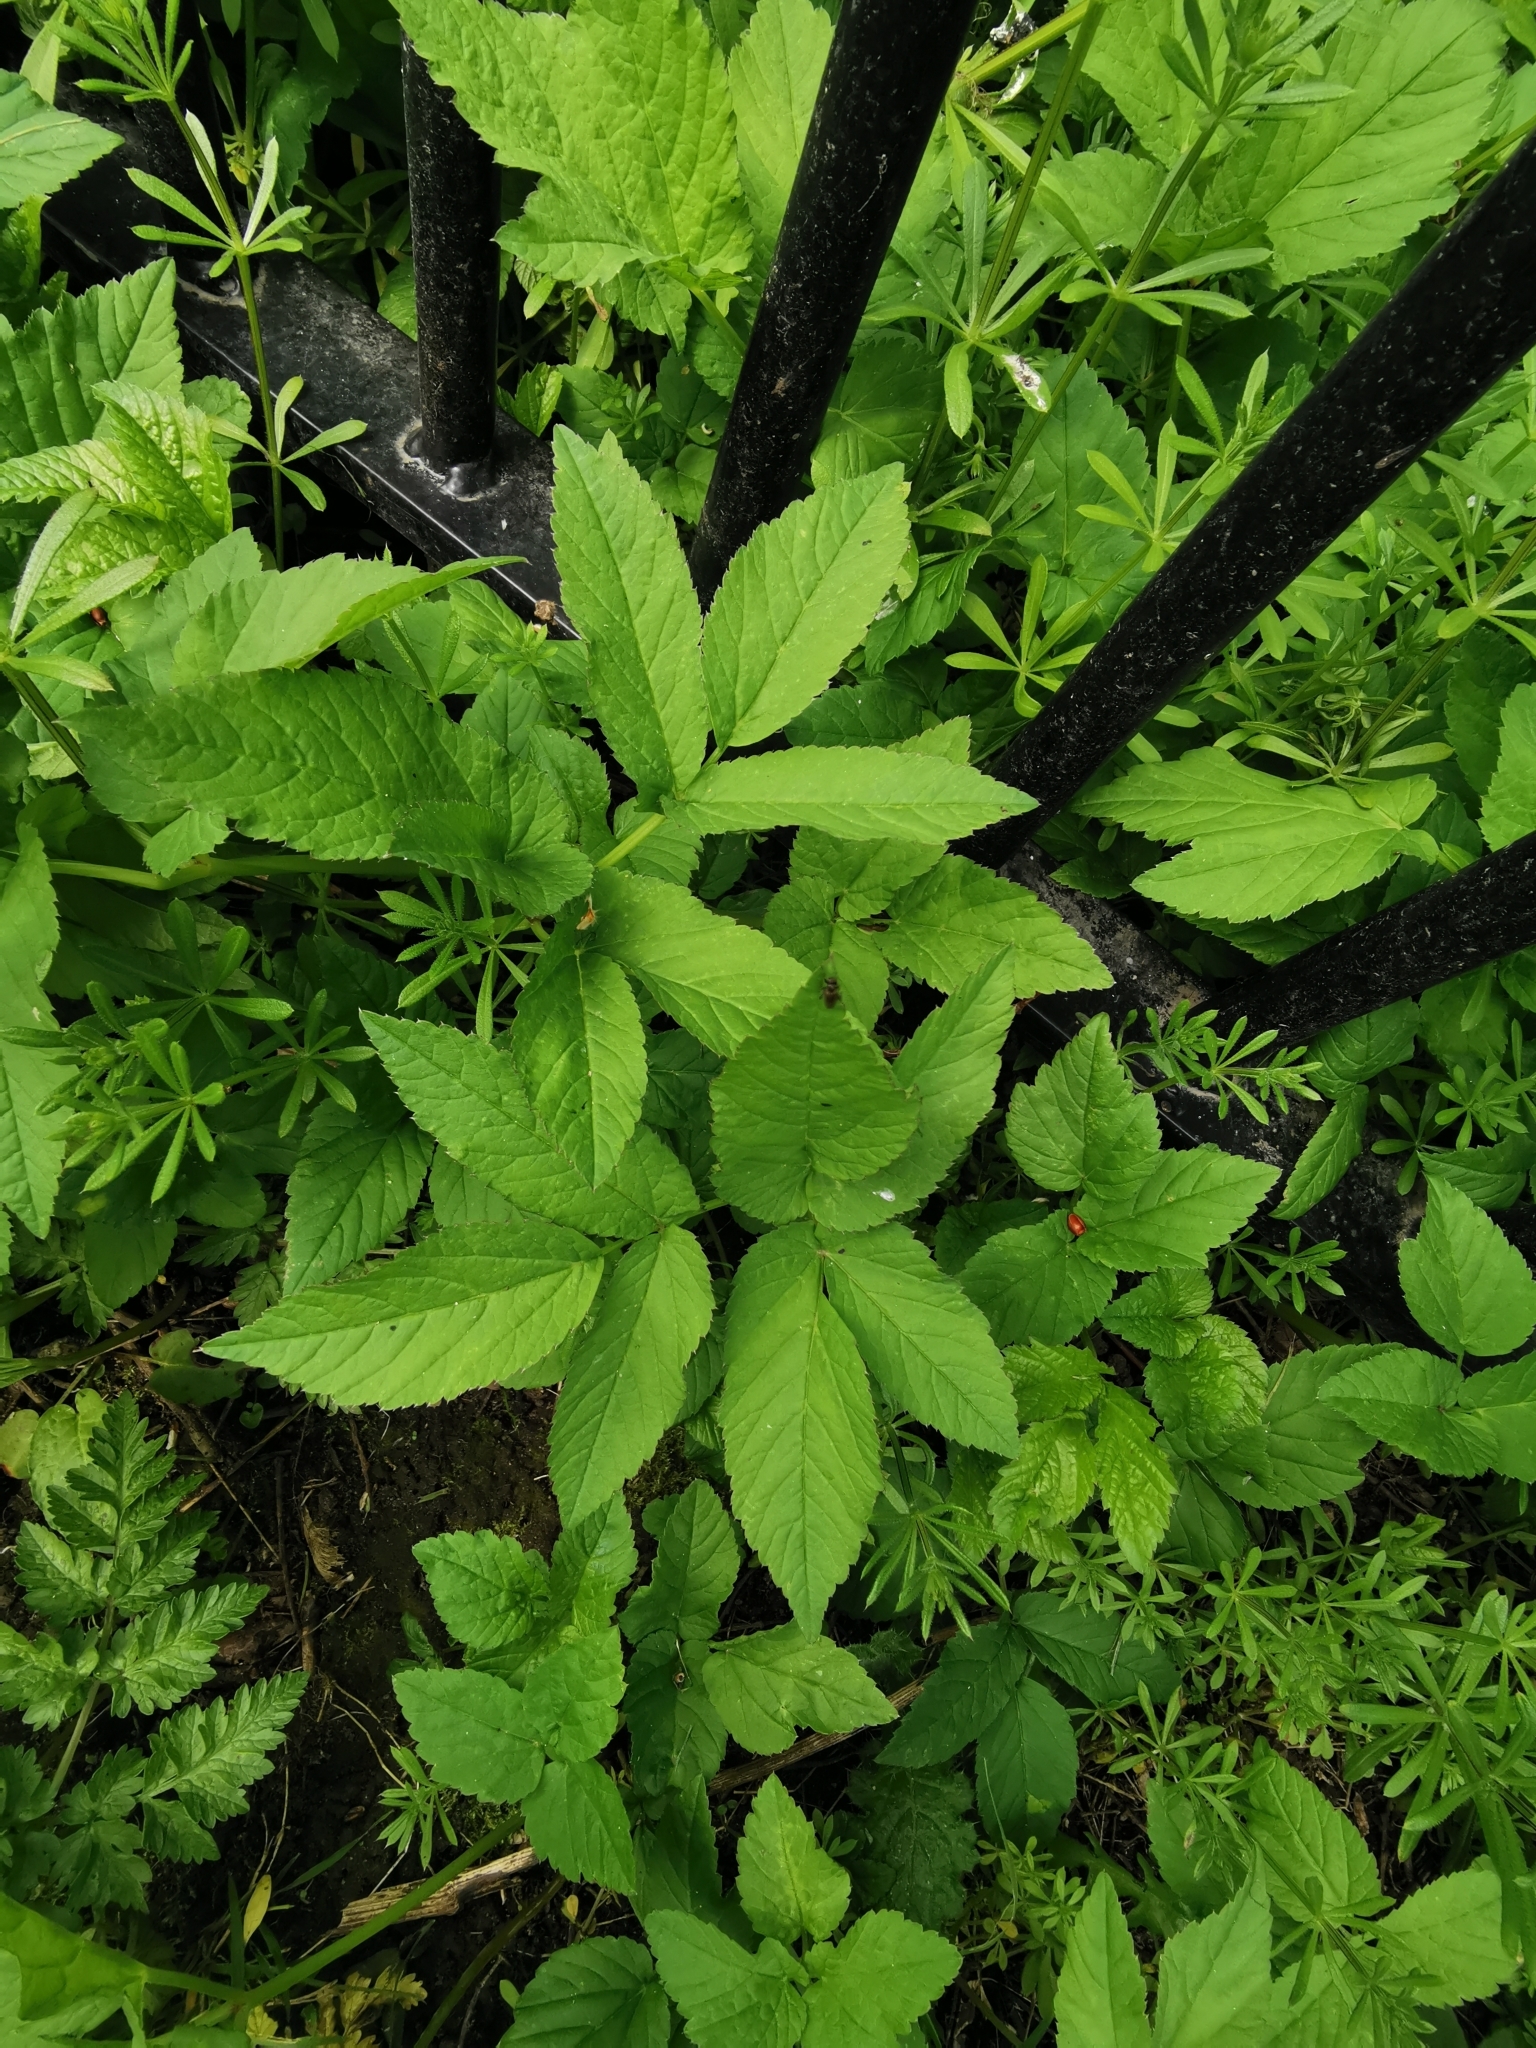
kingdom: Plantae
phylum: Tracheophyta
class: Magnoliopsida
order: Apiales
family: Apiaceae
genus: Aegopodium
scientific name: Aegopodium podagraria
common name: Ground-elder
